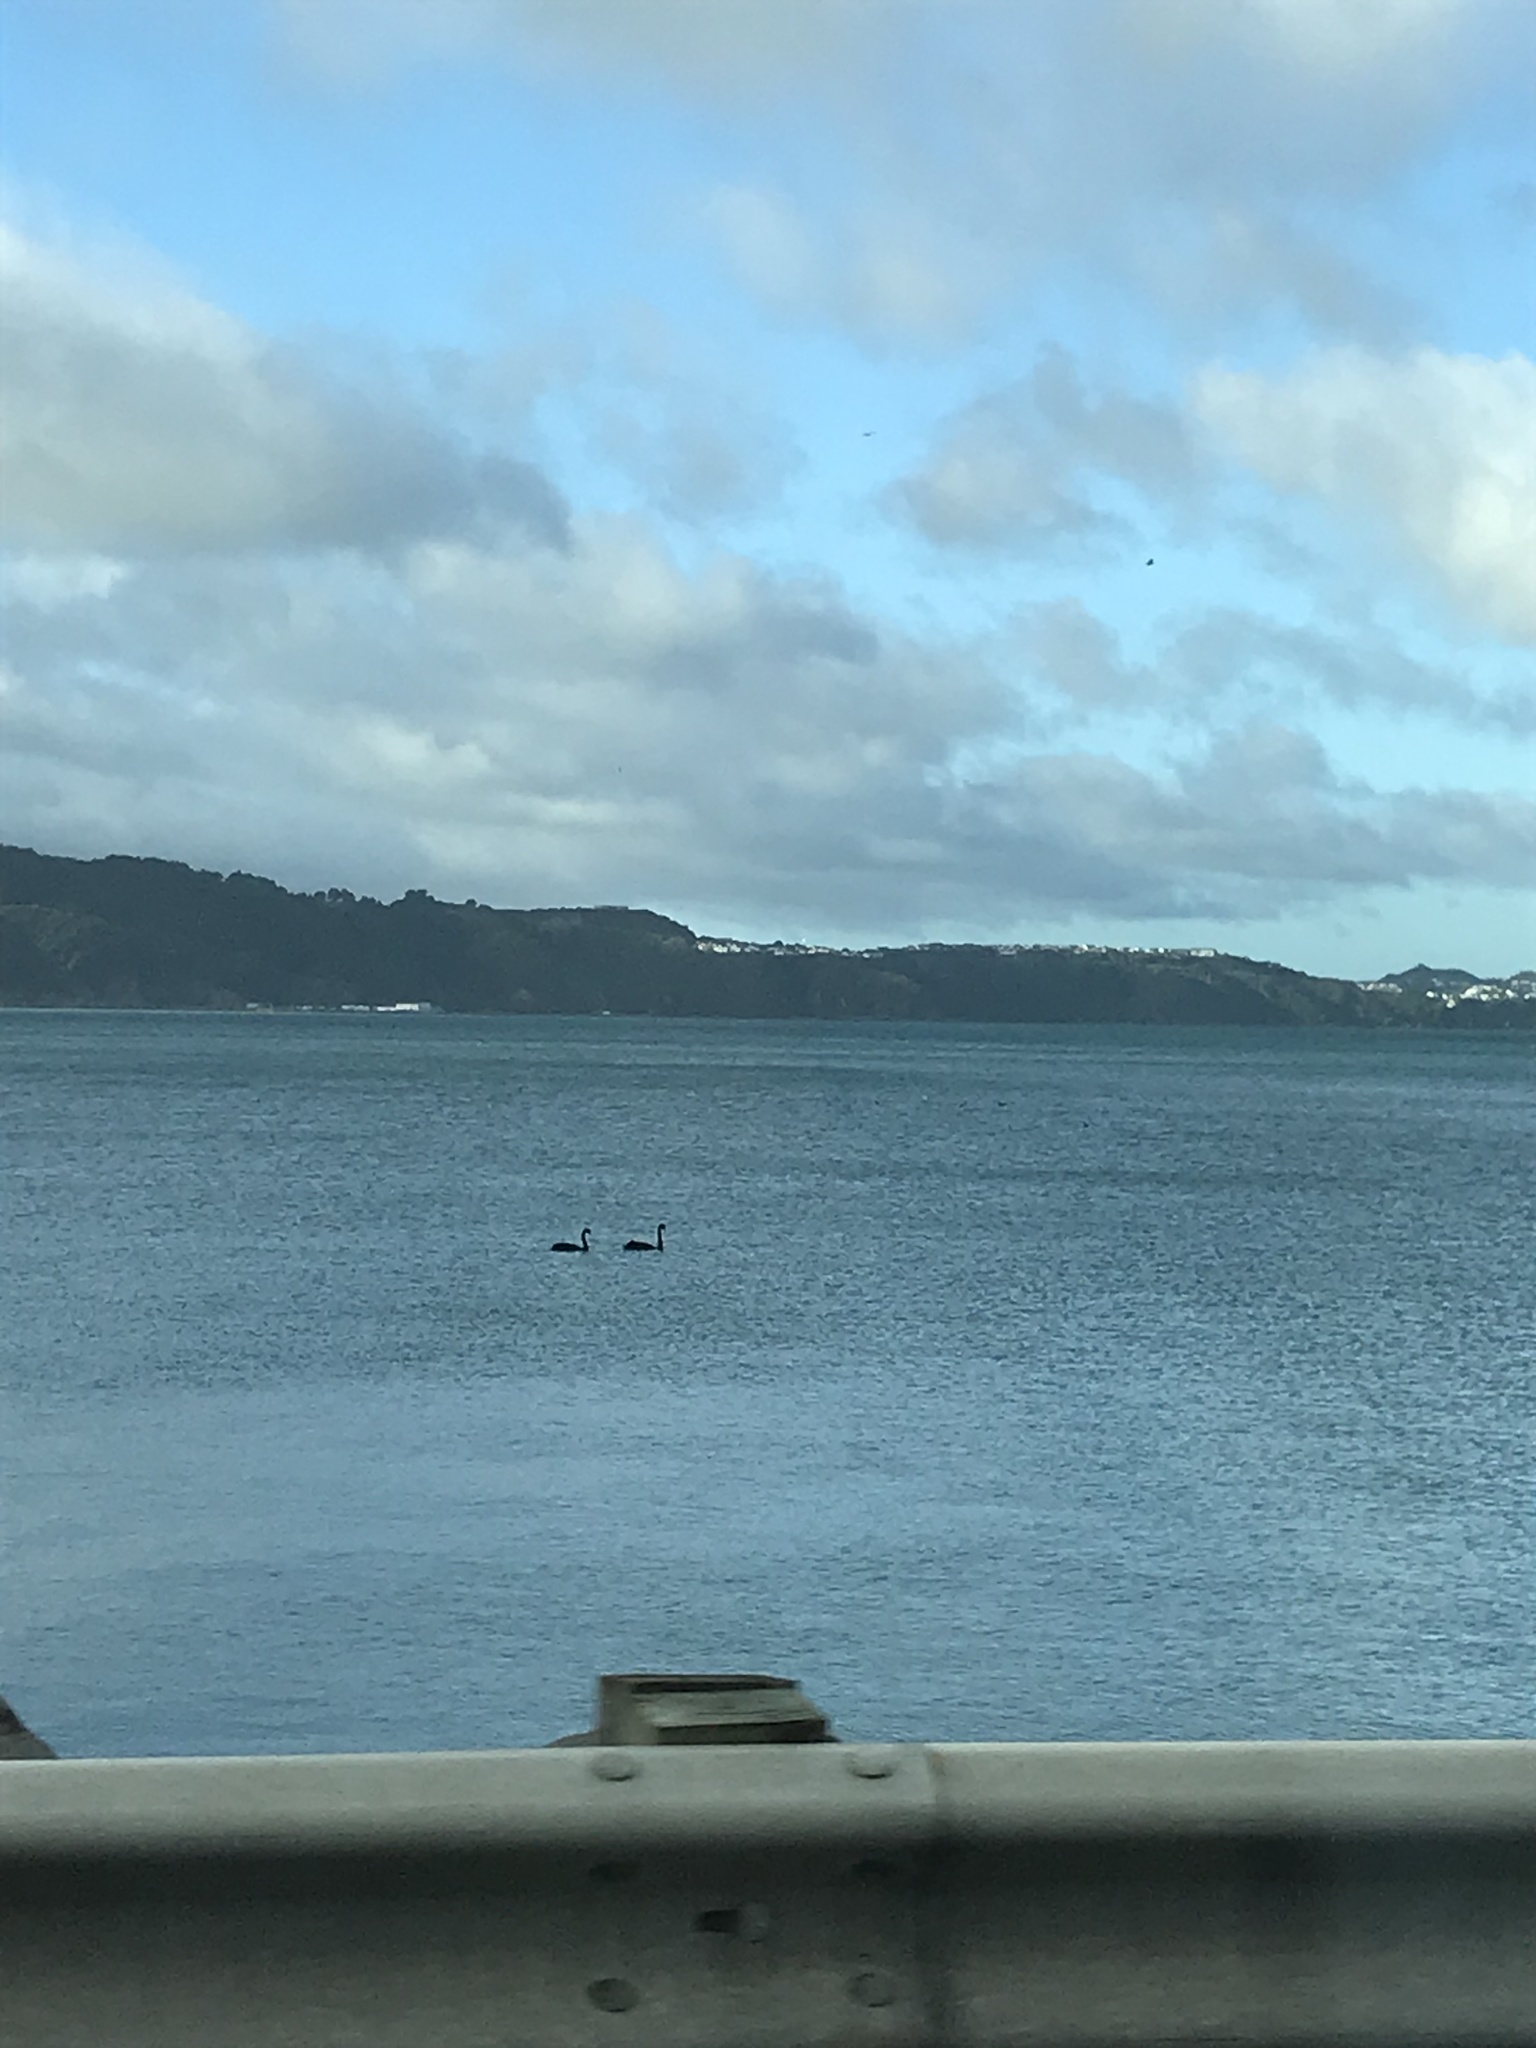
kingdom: Animalia
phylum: Chordata
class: Aves
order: Anseriformes
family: Anatidae
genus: Cygnus
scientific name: Cygnus atratus
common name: Black swan
